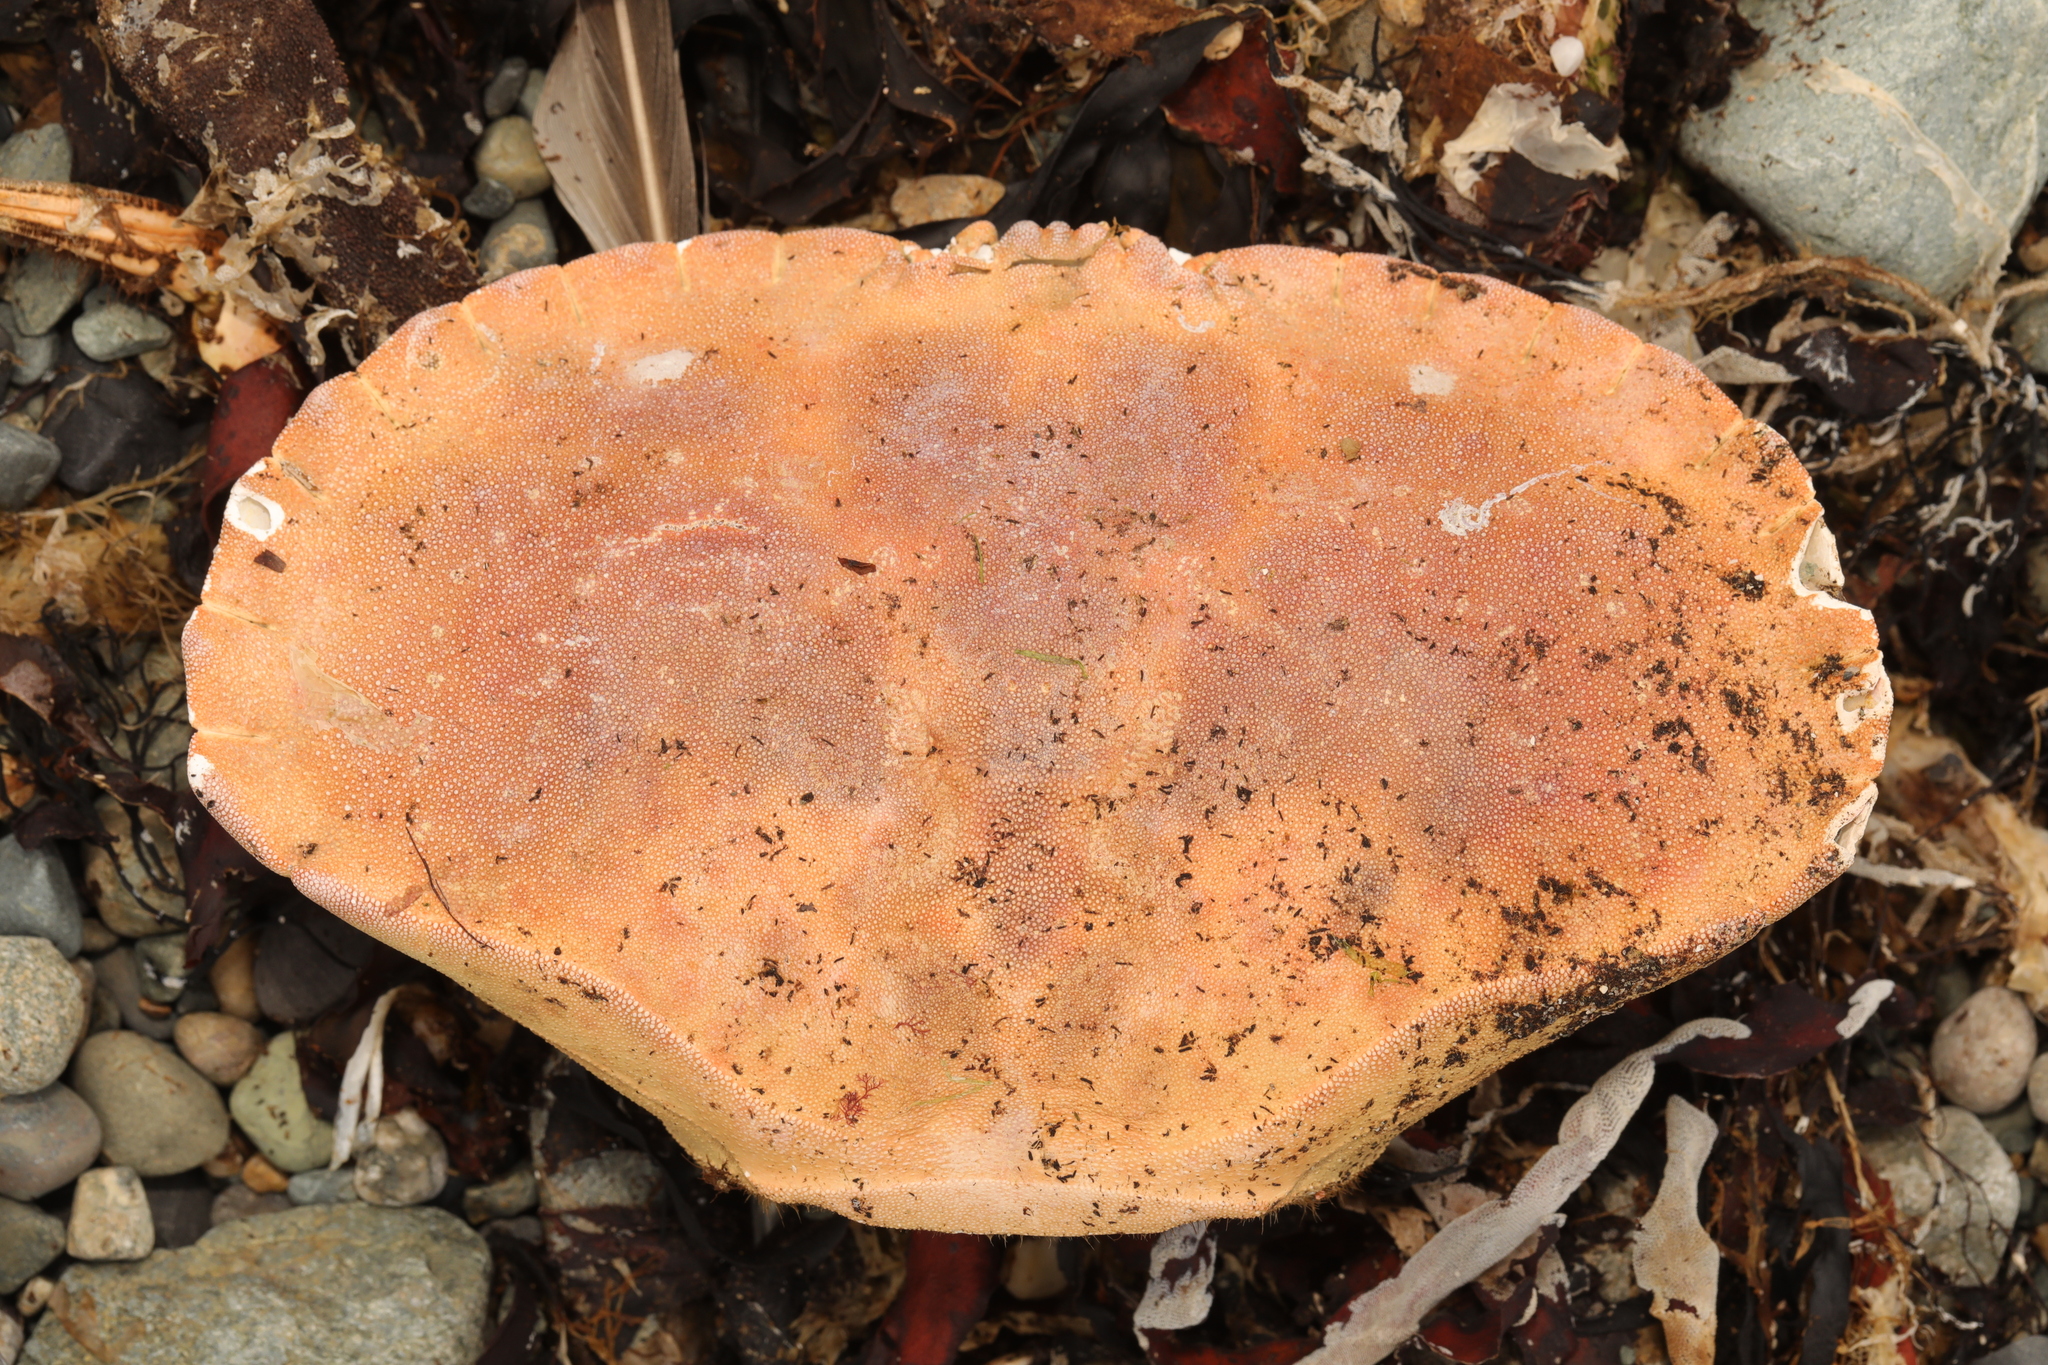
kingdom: Animalia
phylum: Arthropoda
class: Malacostraca
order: Decapoda
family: Cancridae
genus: Cancer
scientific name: Cancer pagurus
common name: Edible crab
